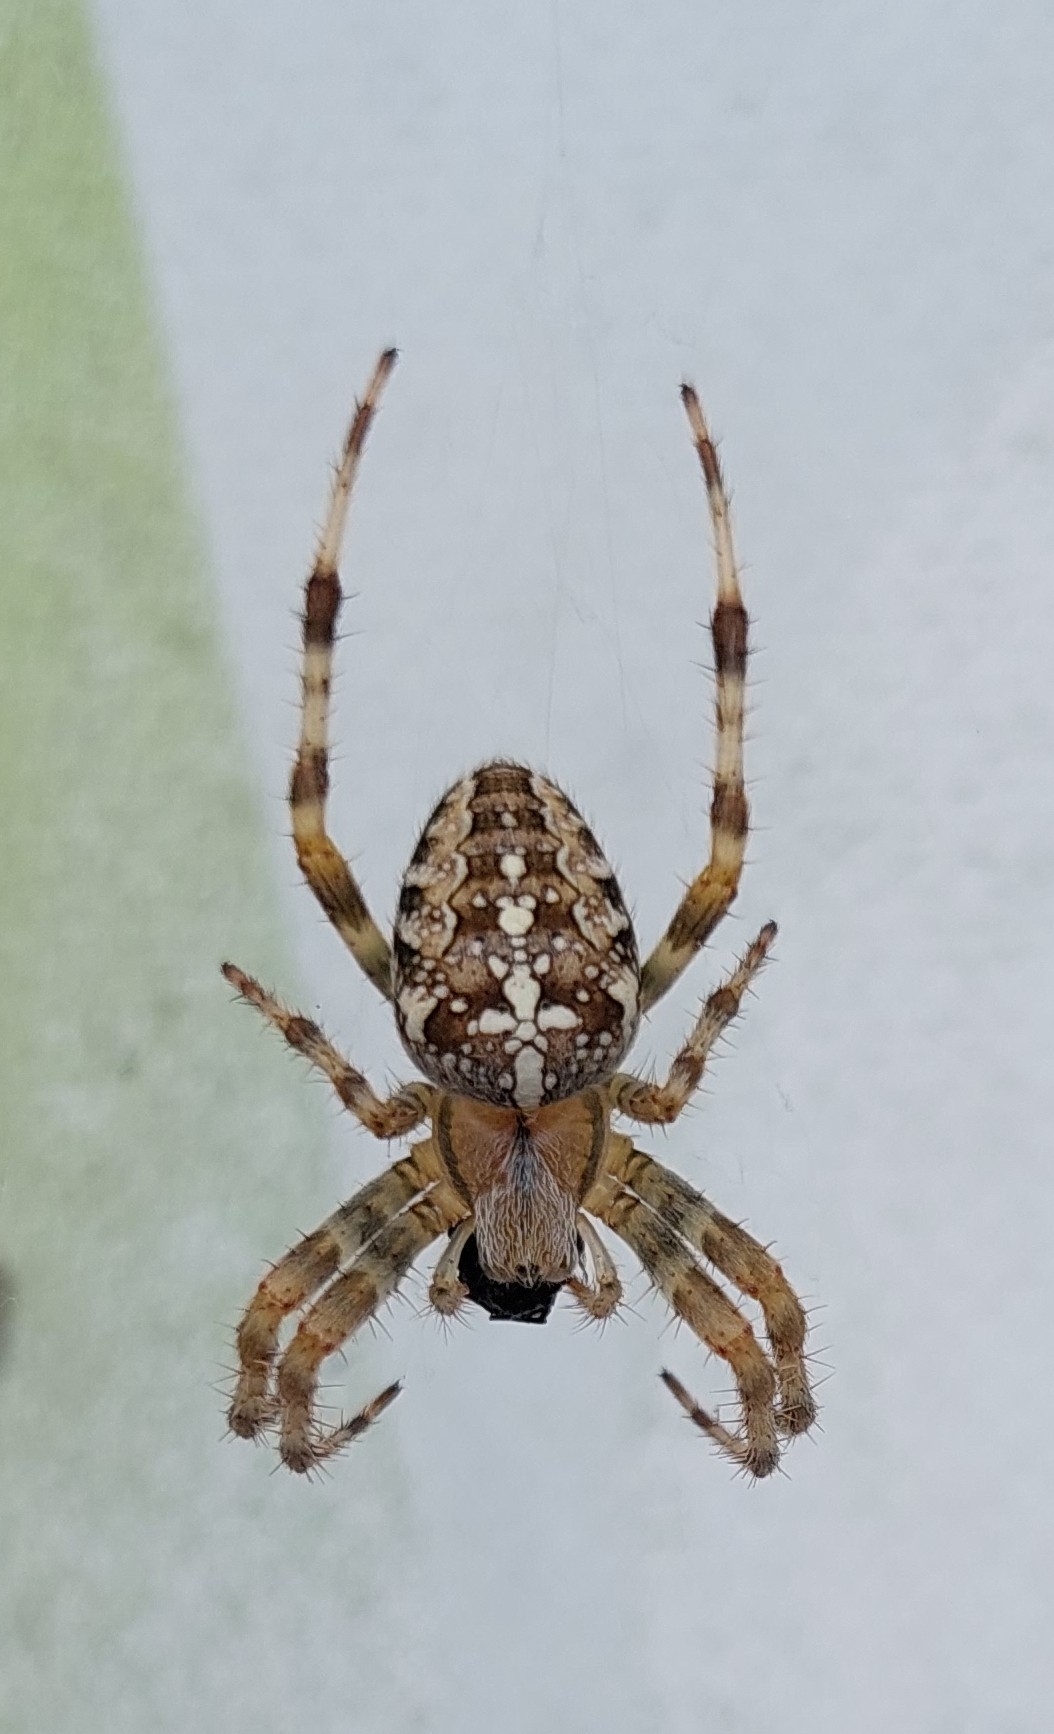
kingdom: Animalia
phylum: Arthropoda
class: Arachnida
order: Araneae
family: Araneidae
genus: Araneus
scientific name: Araneus diadematus
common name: Cross orbweaver
